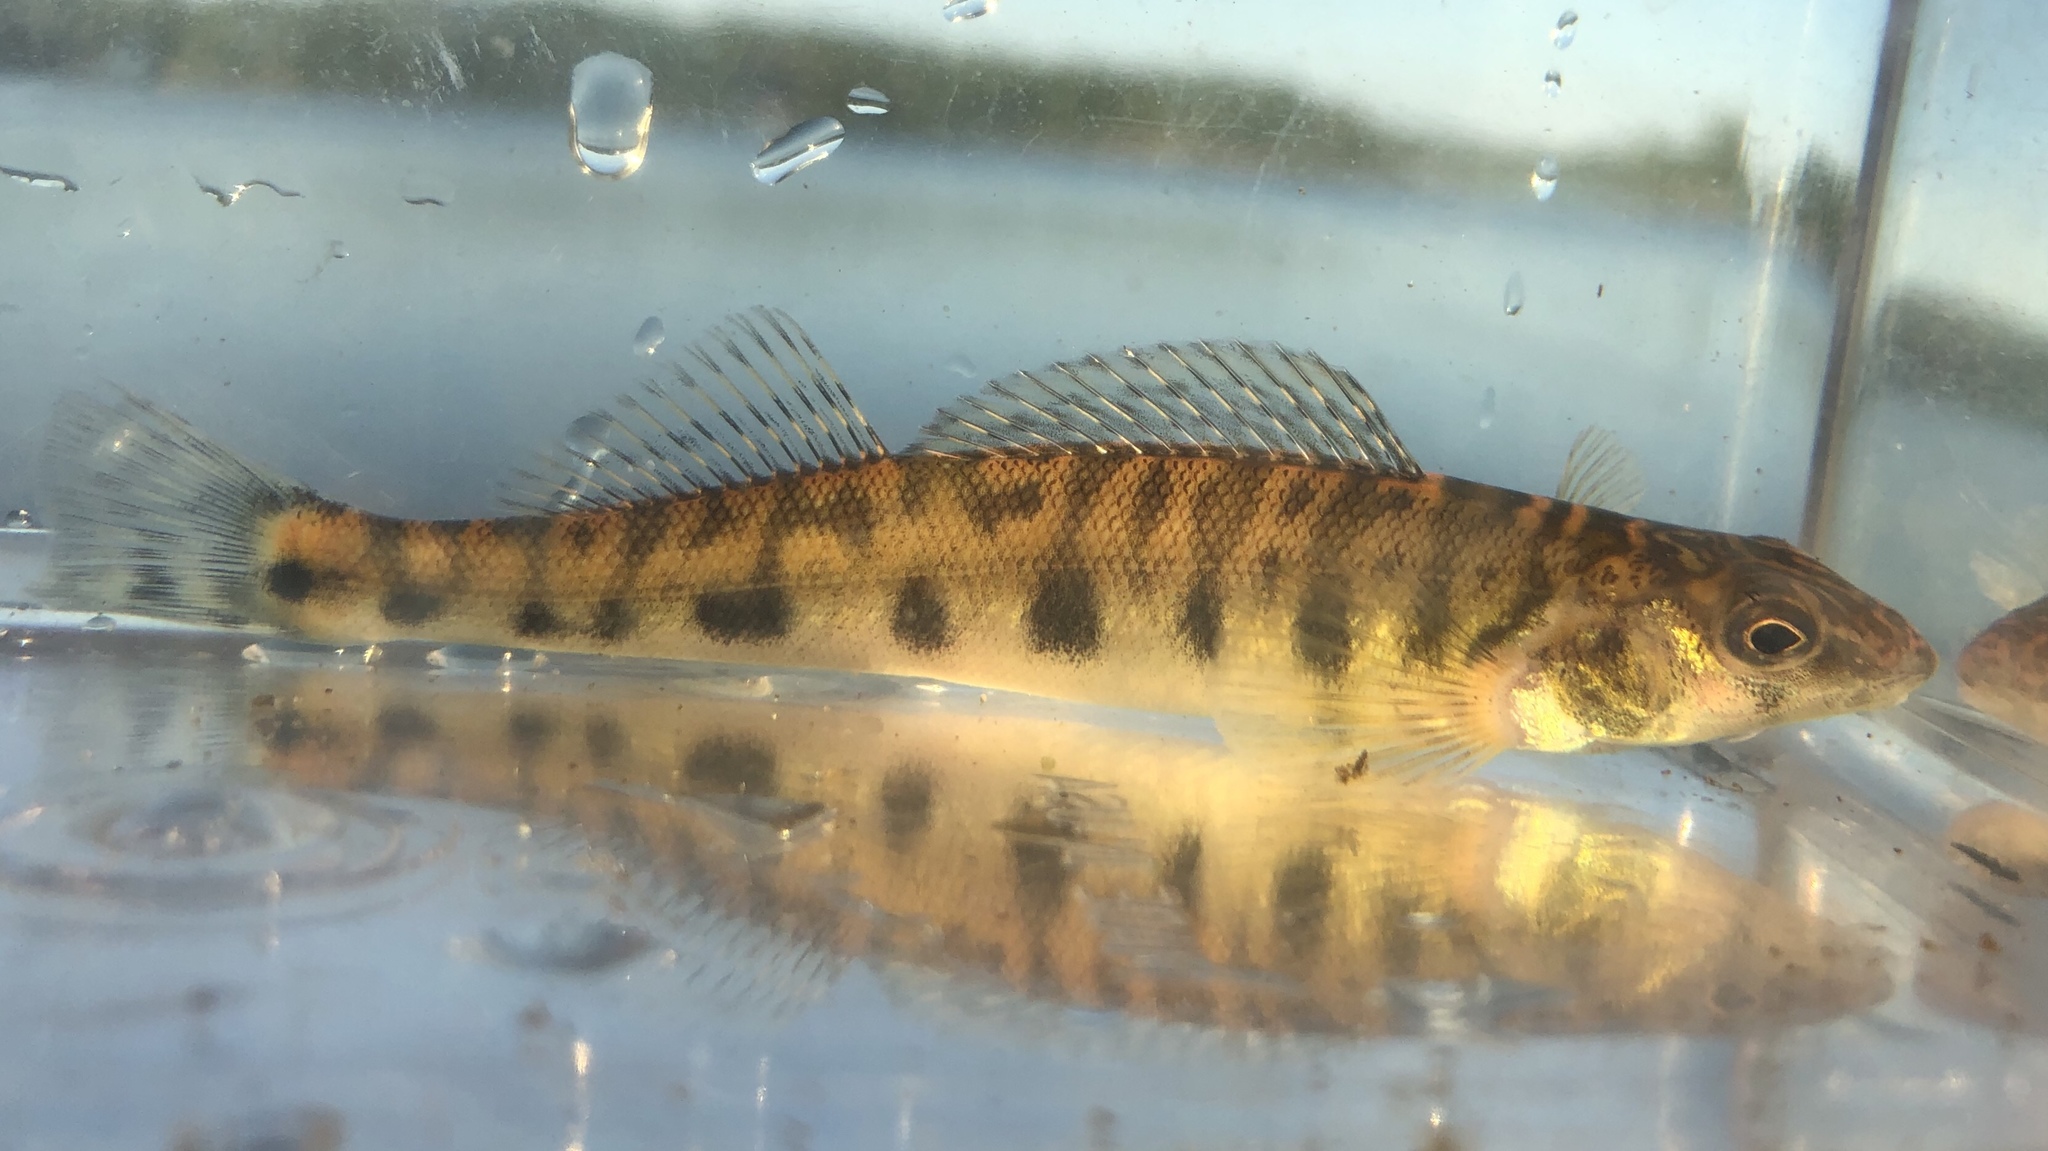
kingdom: Animalia
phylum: Chordata
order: Perciformes
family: Percidae
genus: Percina
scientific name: Percina caprodes
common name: Logperch
